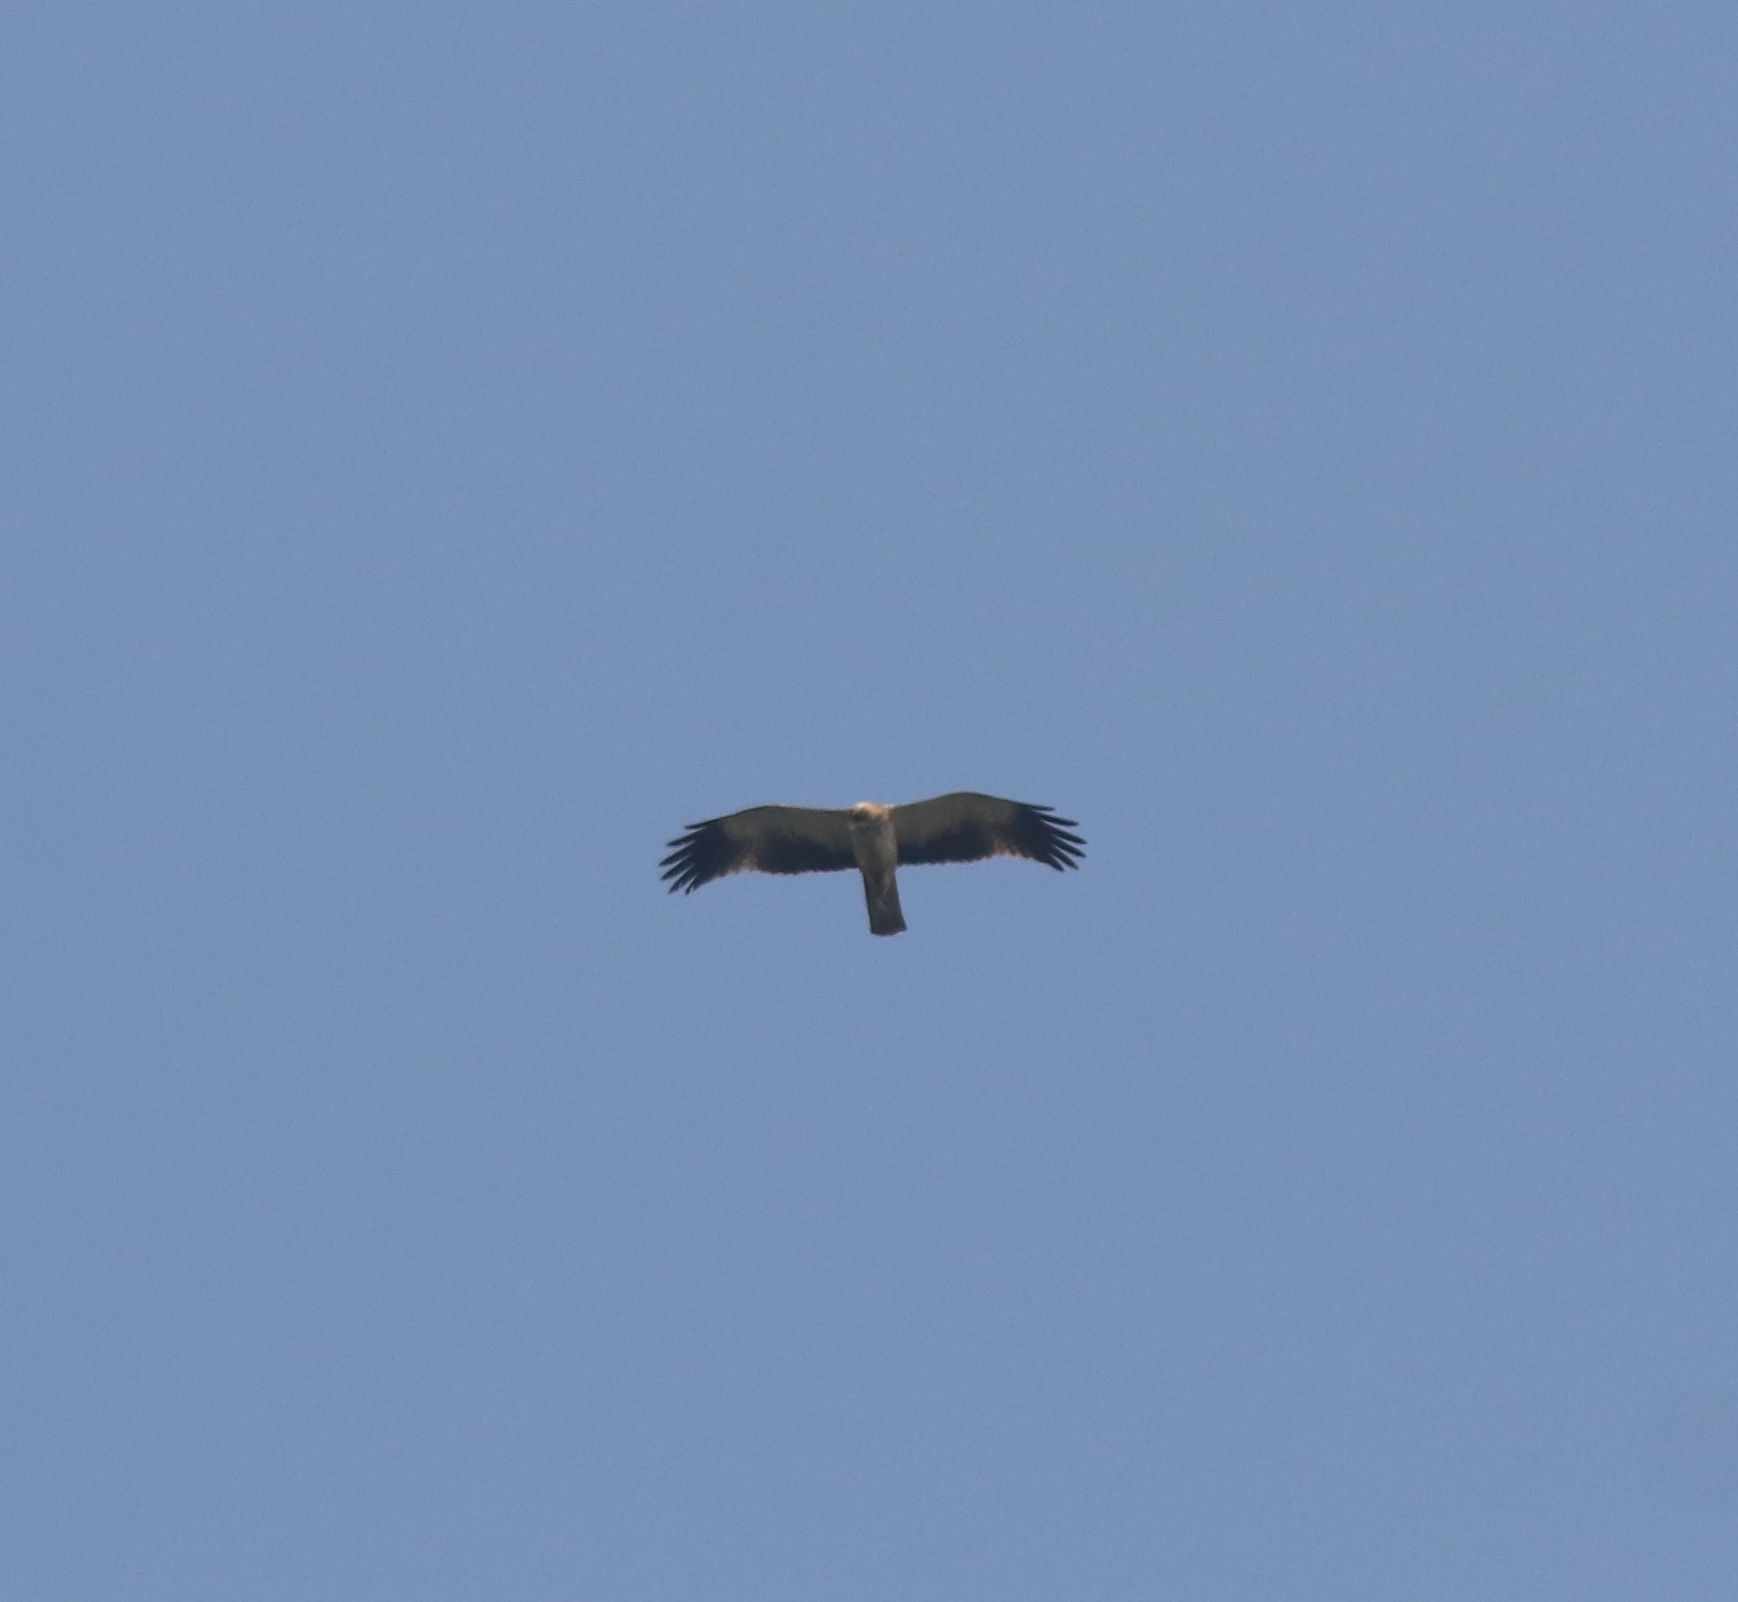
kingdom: Animalia
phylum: Chordata
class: Aves
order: Accipitriformes
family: Accipitridae
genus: Hieraaetus
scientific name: Hieraaetus pennatus
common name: Booted eagle
